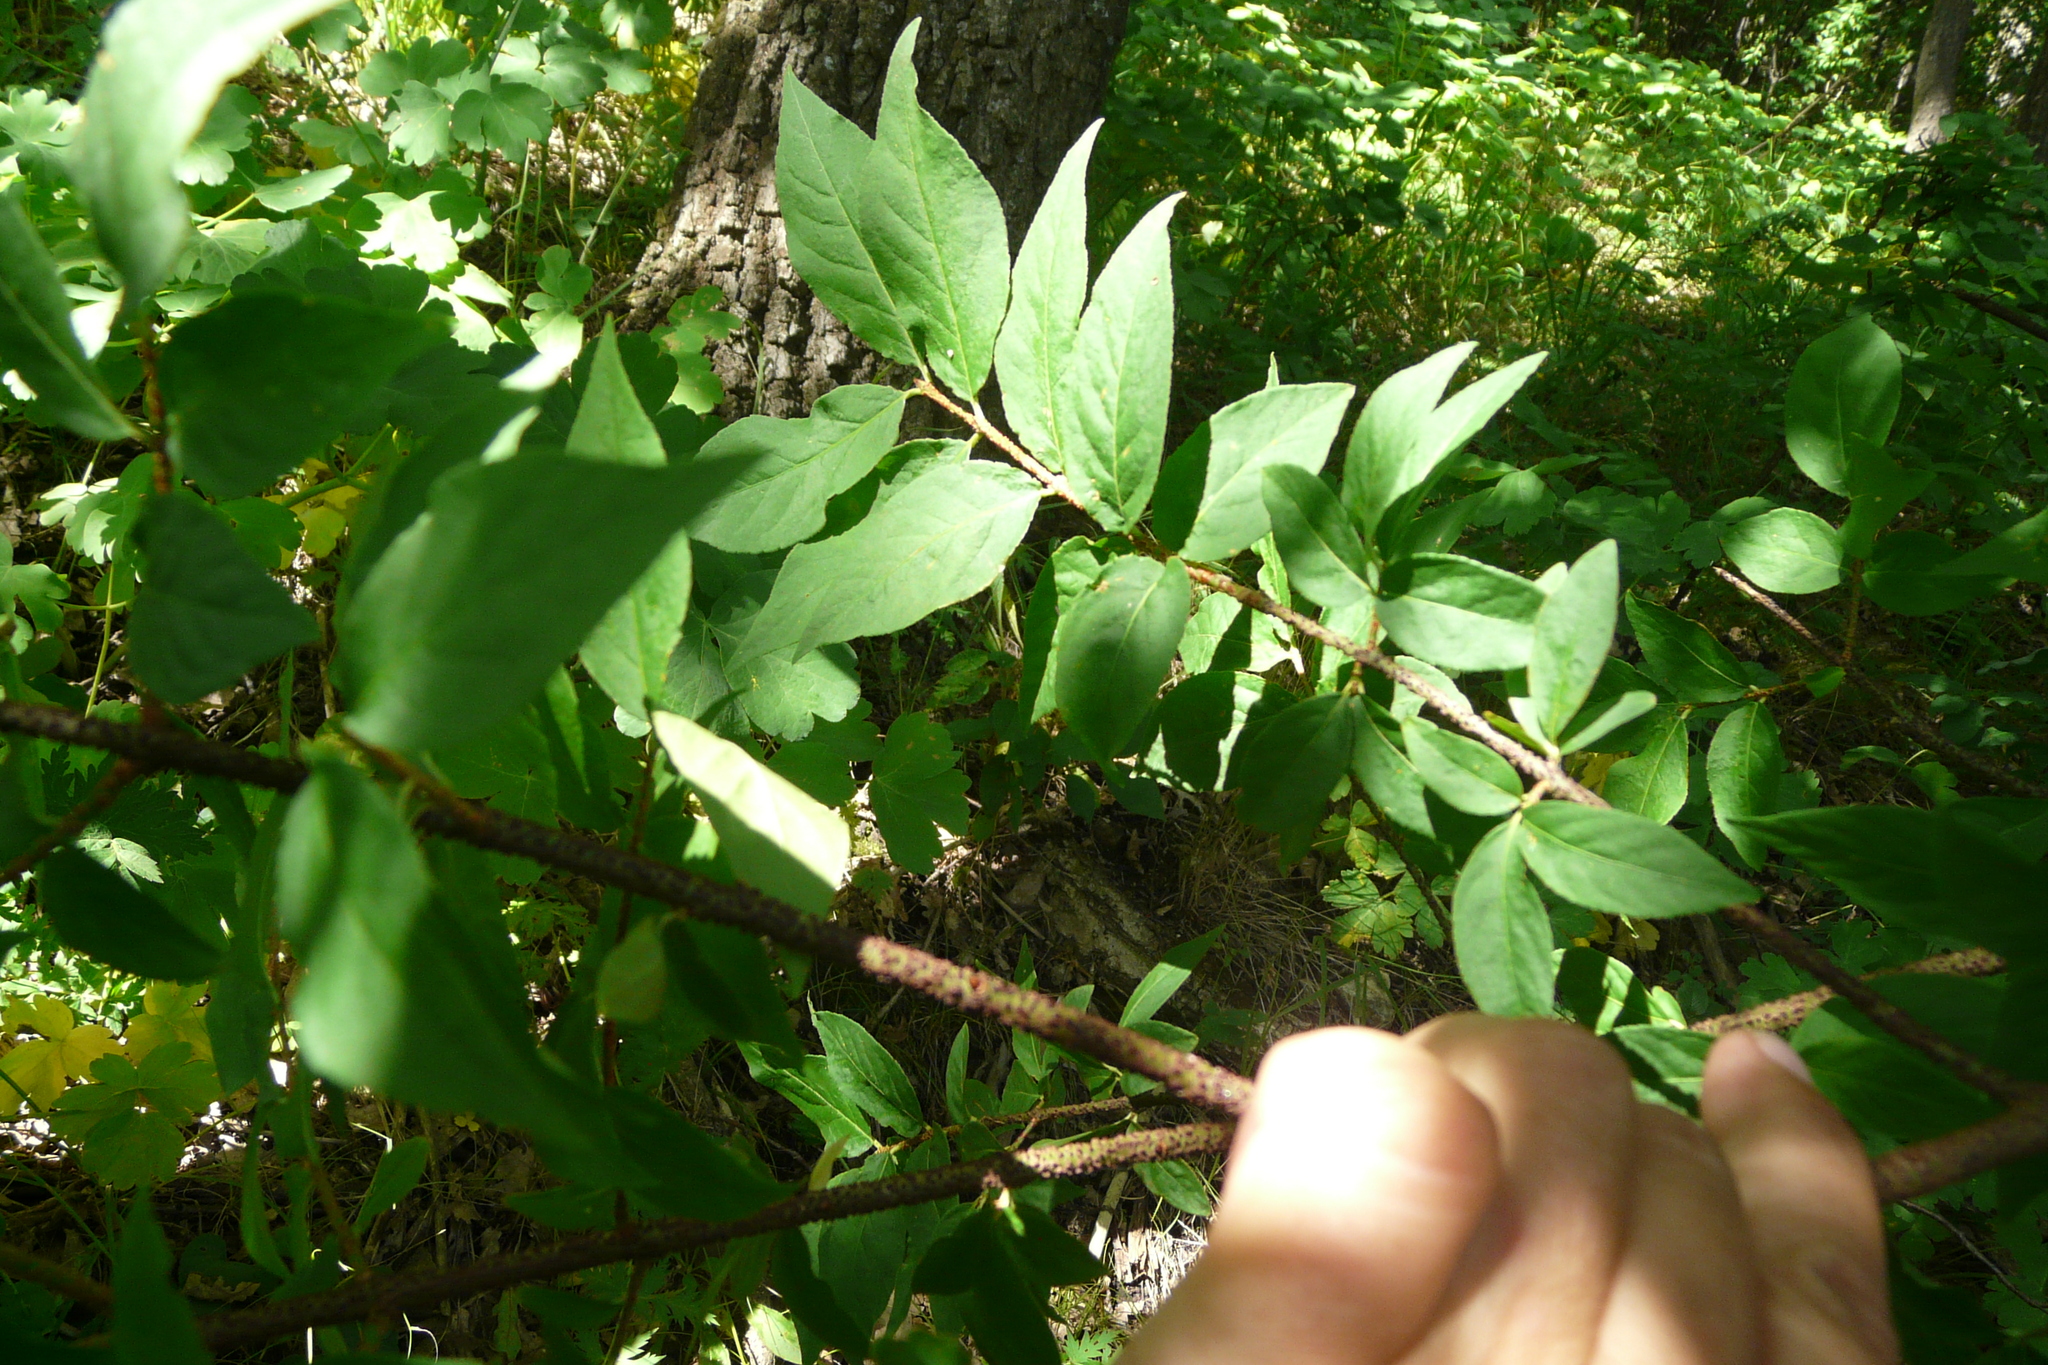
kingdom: Plantae
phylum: Tracheophyta
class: Magnoliopsida
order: Celastrales
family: Celastraceae
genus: Euonymus
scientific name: Euonymus verrucosus
